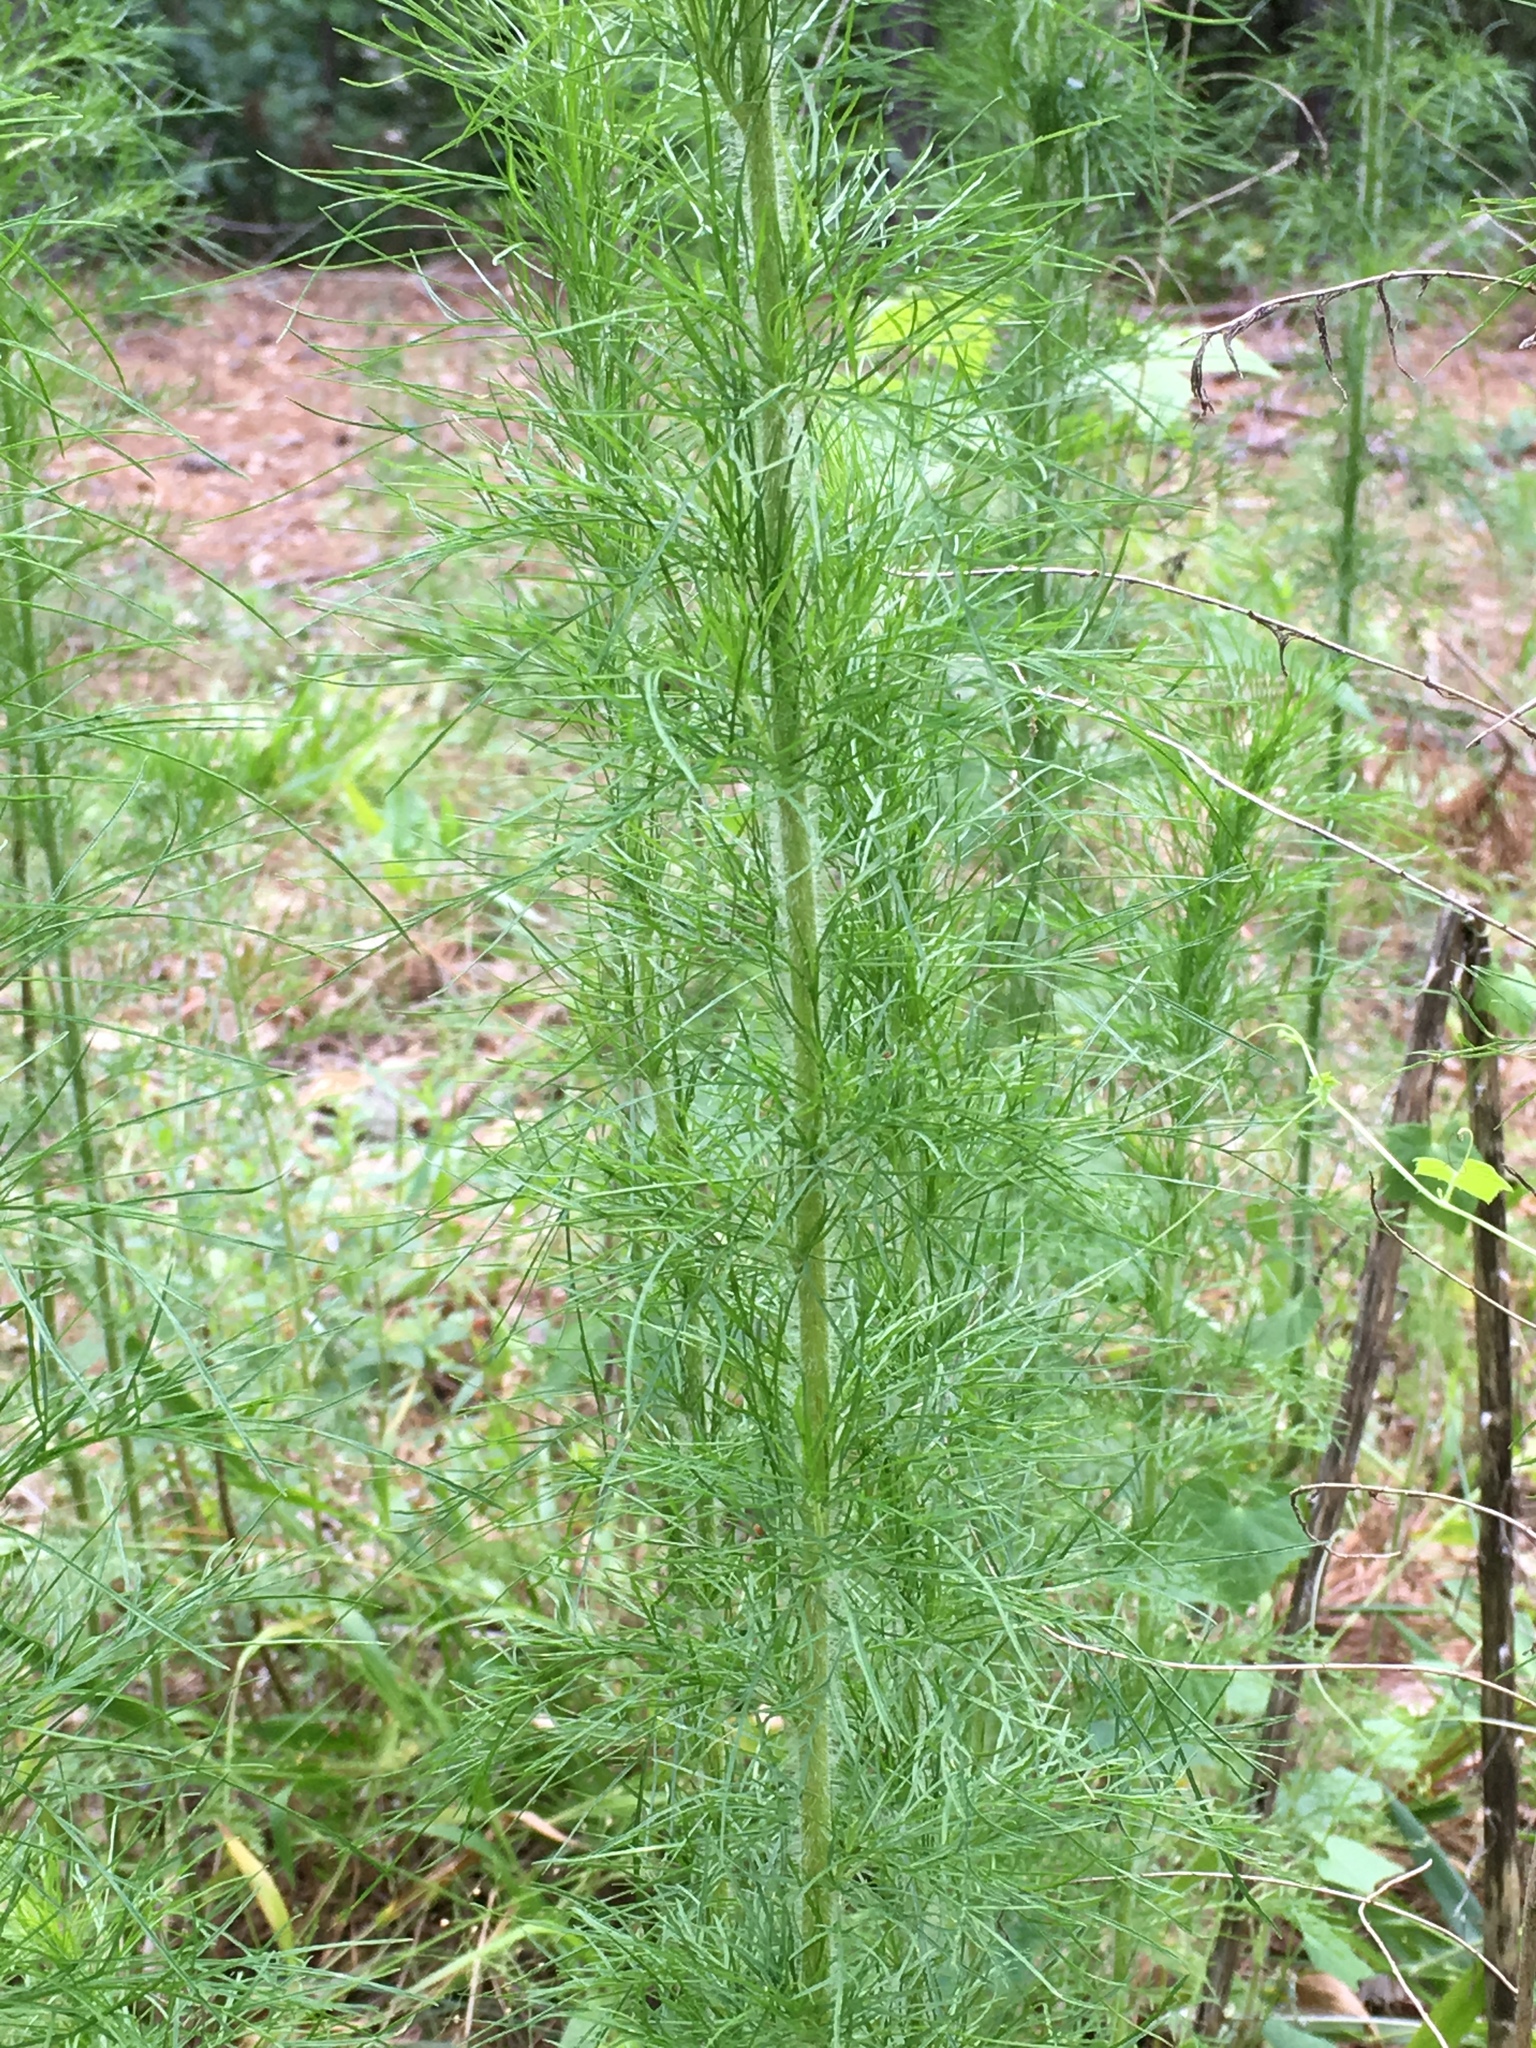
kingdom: Plantae
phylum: Tracheophyta
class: Magnoliopsida
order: Asterales
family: Asteraceae
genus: Eupatorium
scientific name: Eupatorium capillifolium
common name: Dog-fennel
